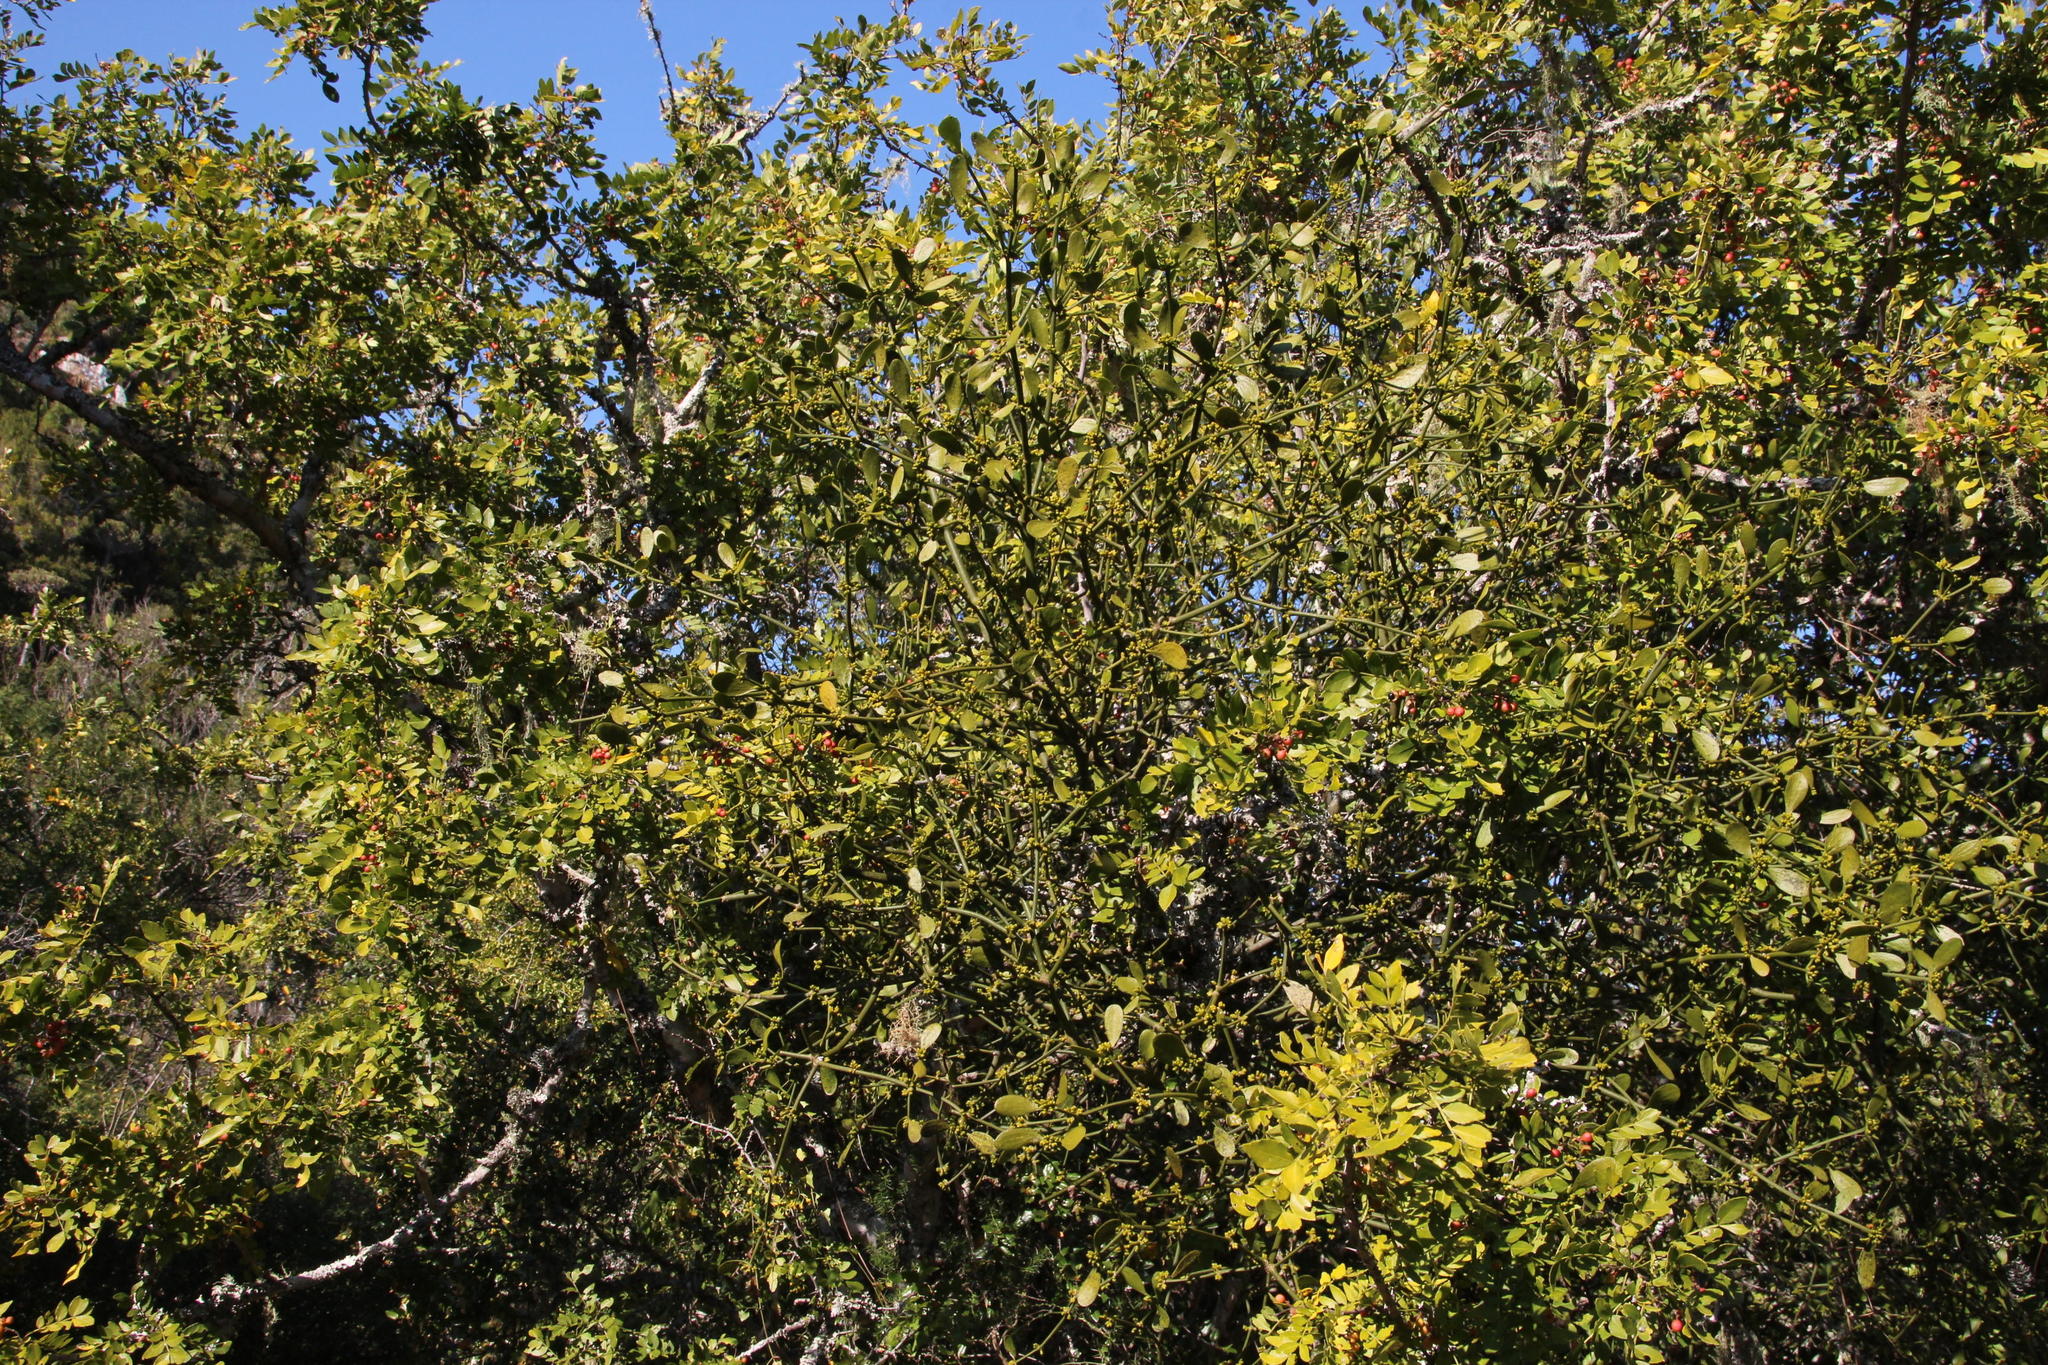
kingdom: Plantae
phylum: Tracheophyta
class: Magnoliopsida
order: Sapindales
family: Rutaceae
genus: Zanthoxylum
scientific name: Zanthoxylum capense
